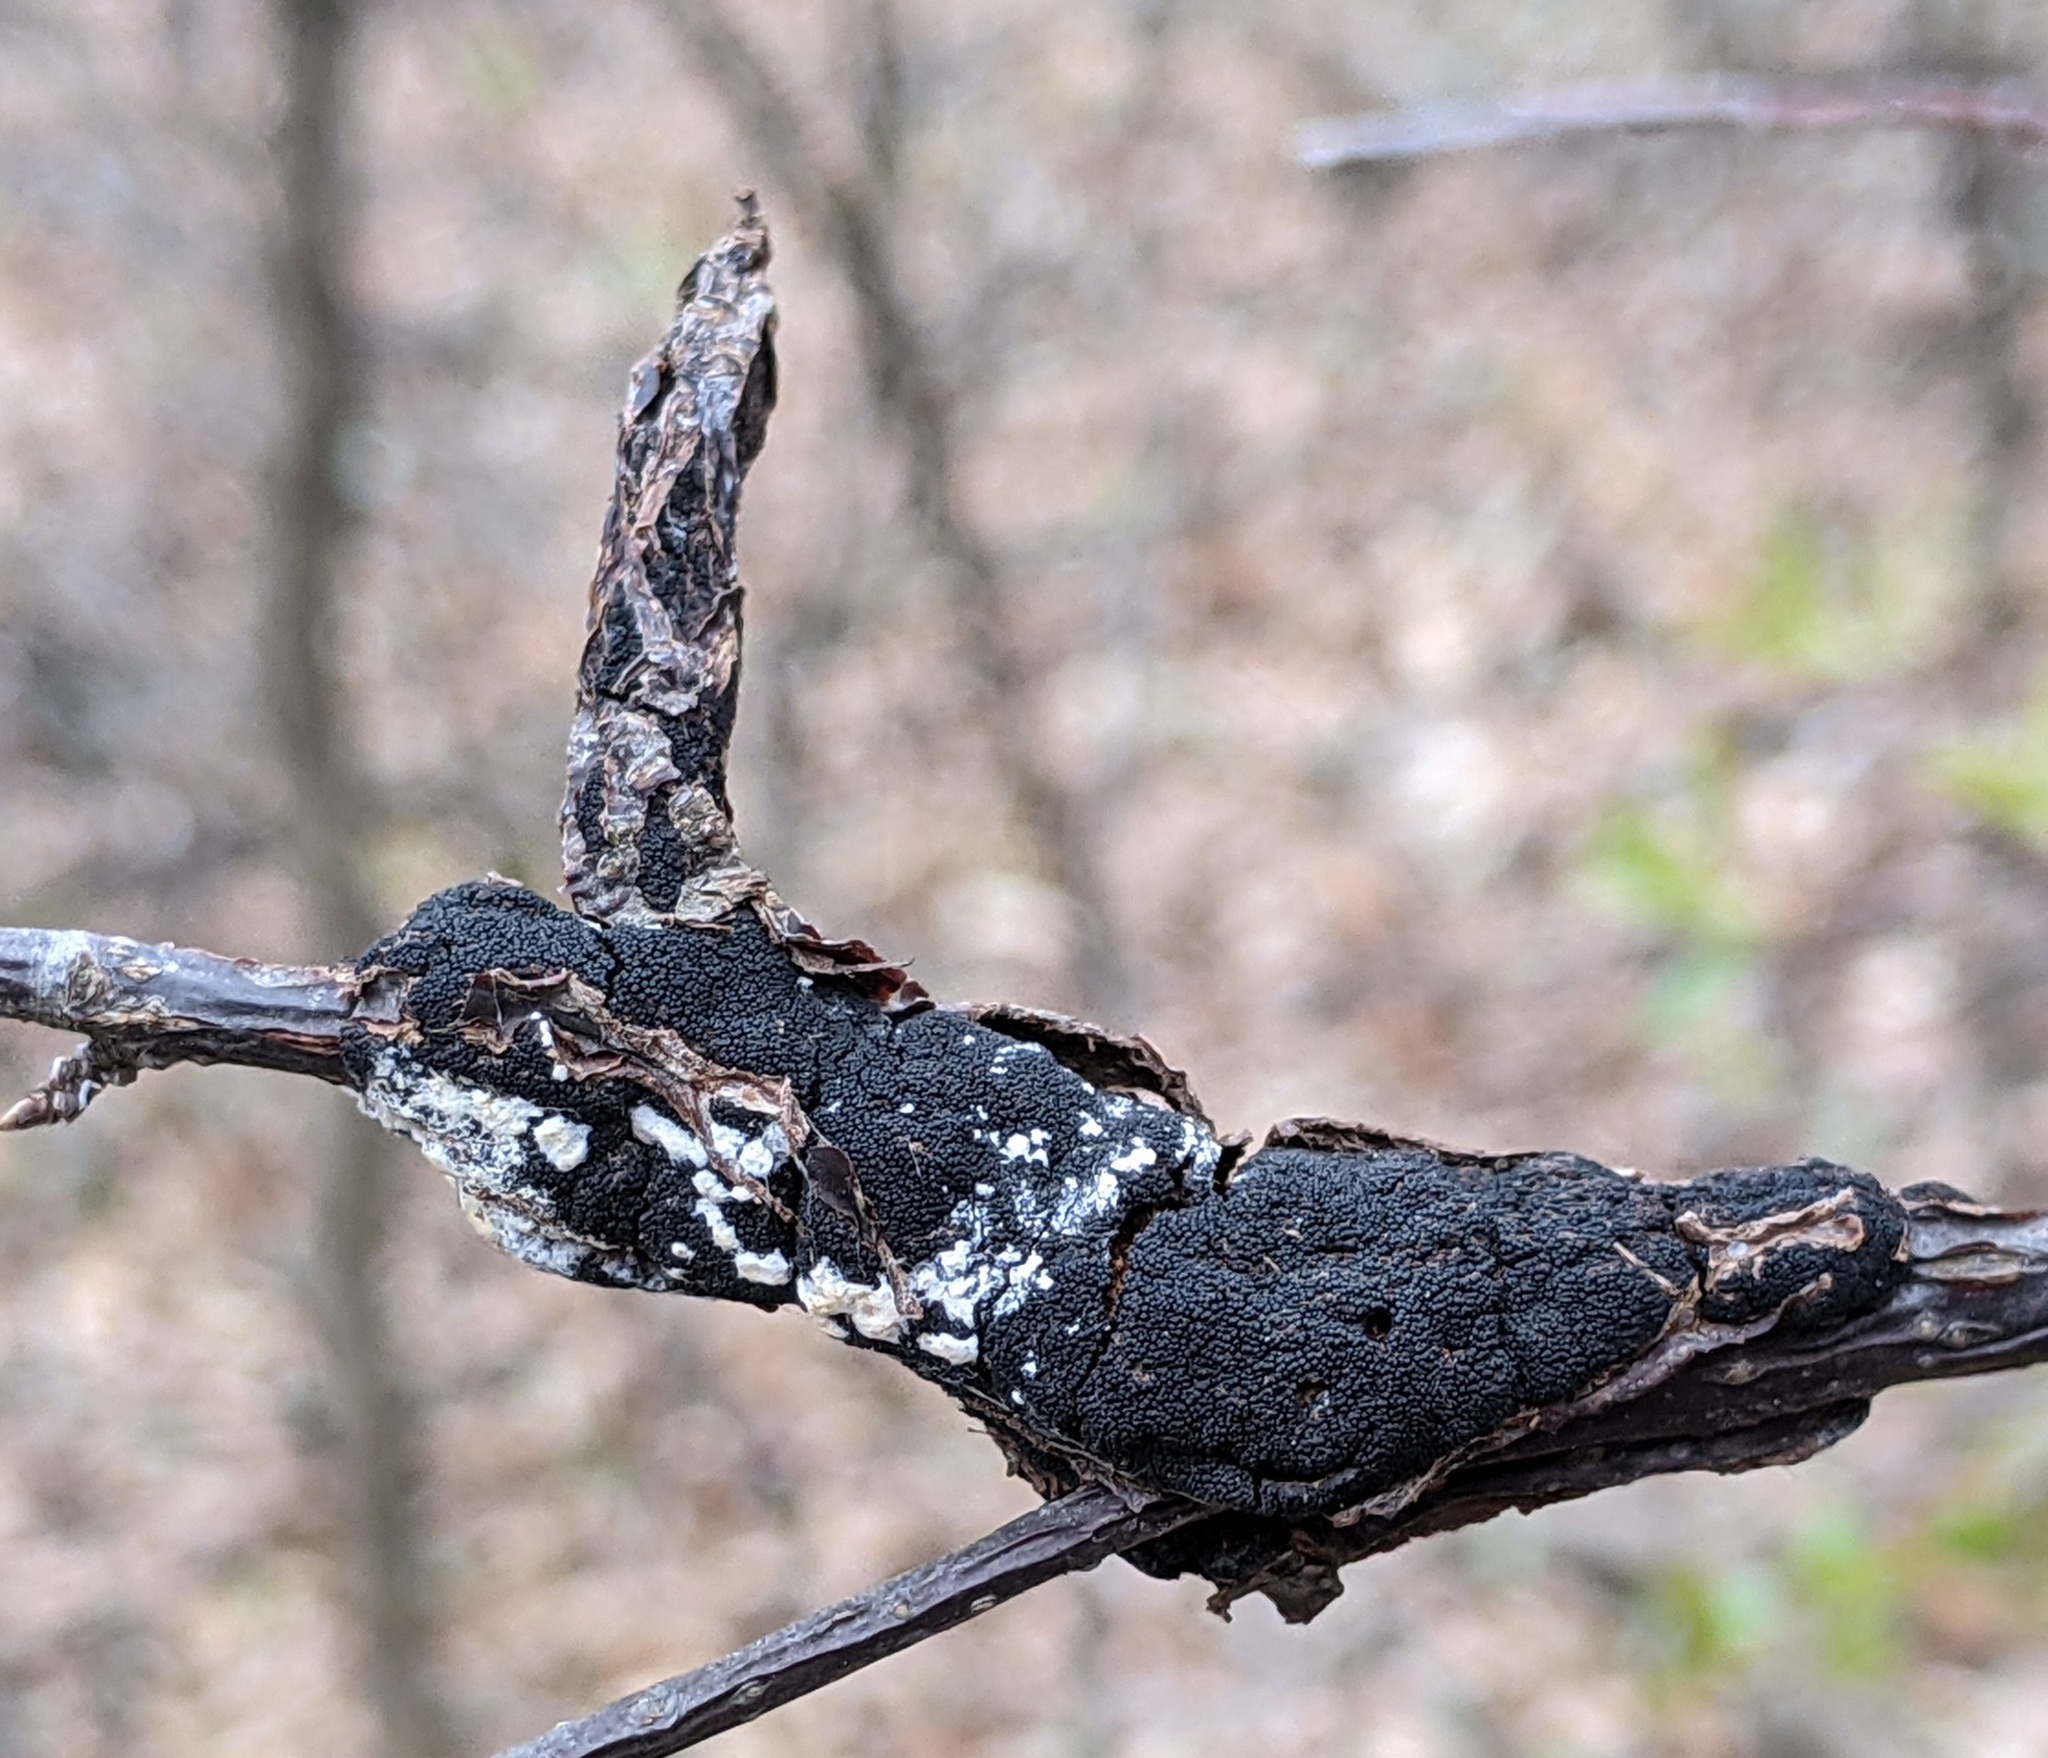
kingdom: Fungi
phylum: Ascomycota
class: Dothideomycetes
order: Venturiales
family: Venturiaceae
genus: Apiosporina
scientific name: Apiosporina morbosa
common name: Black knot
